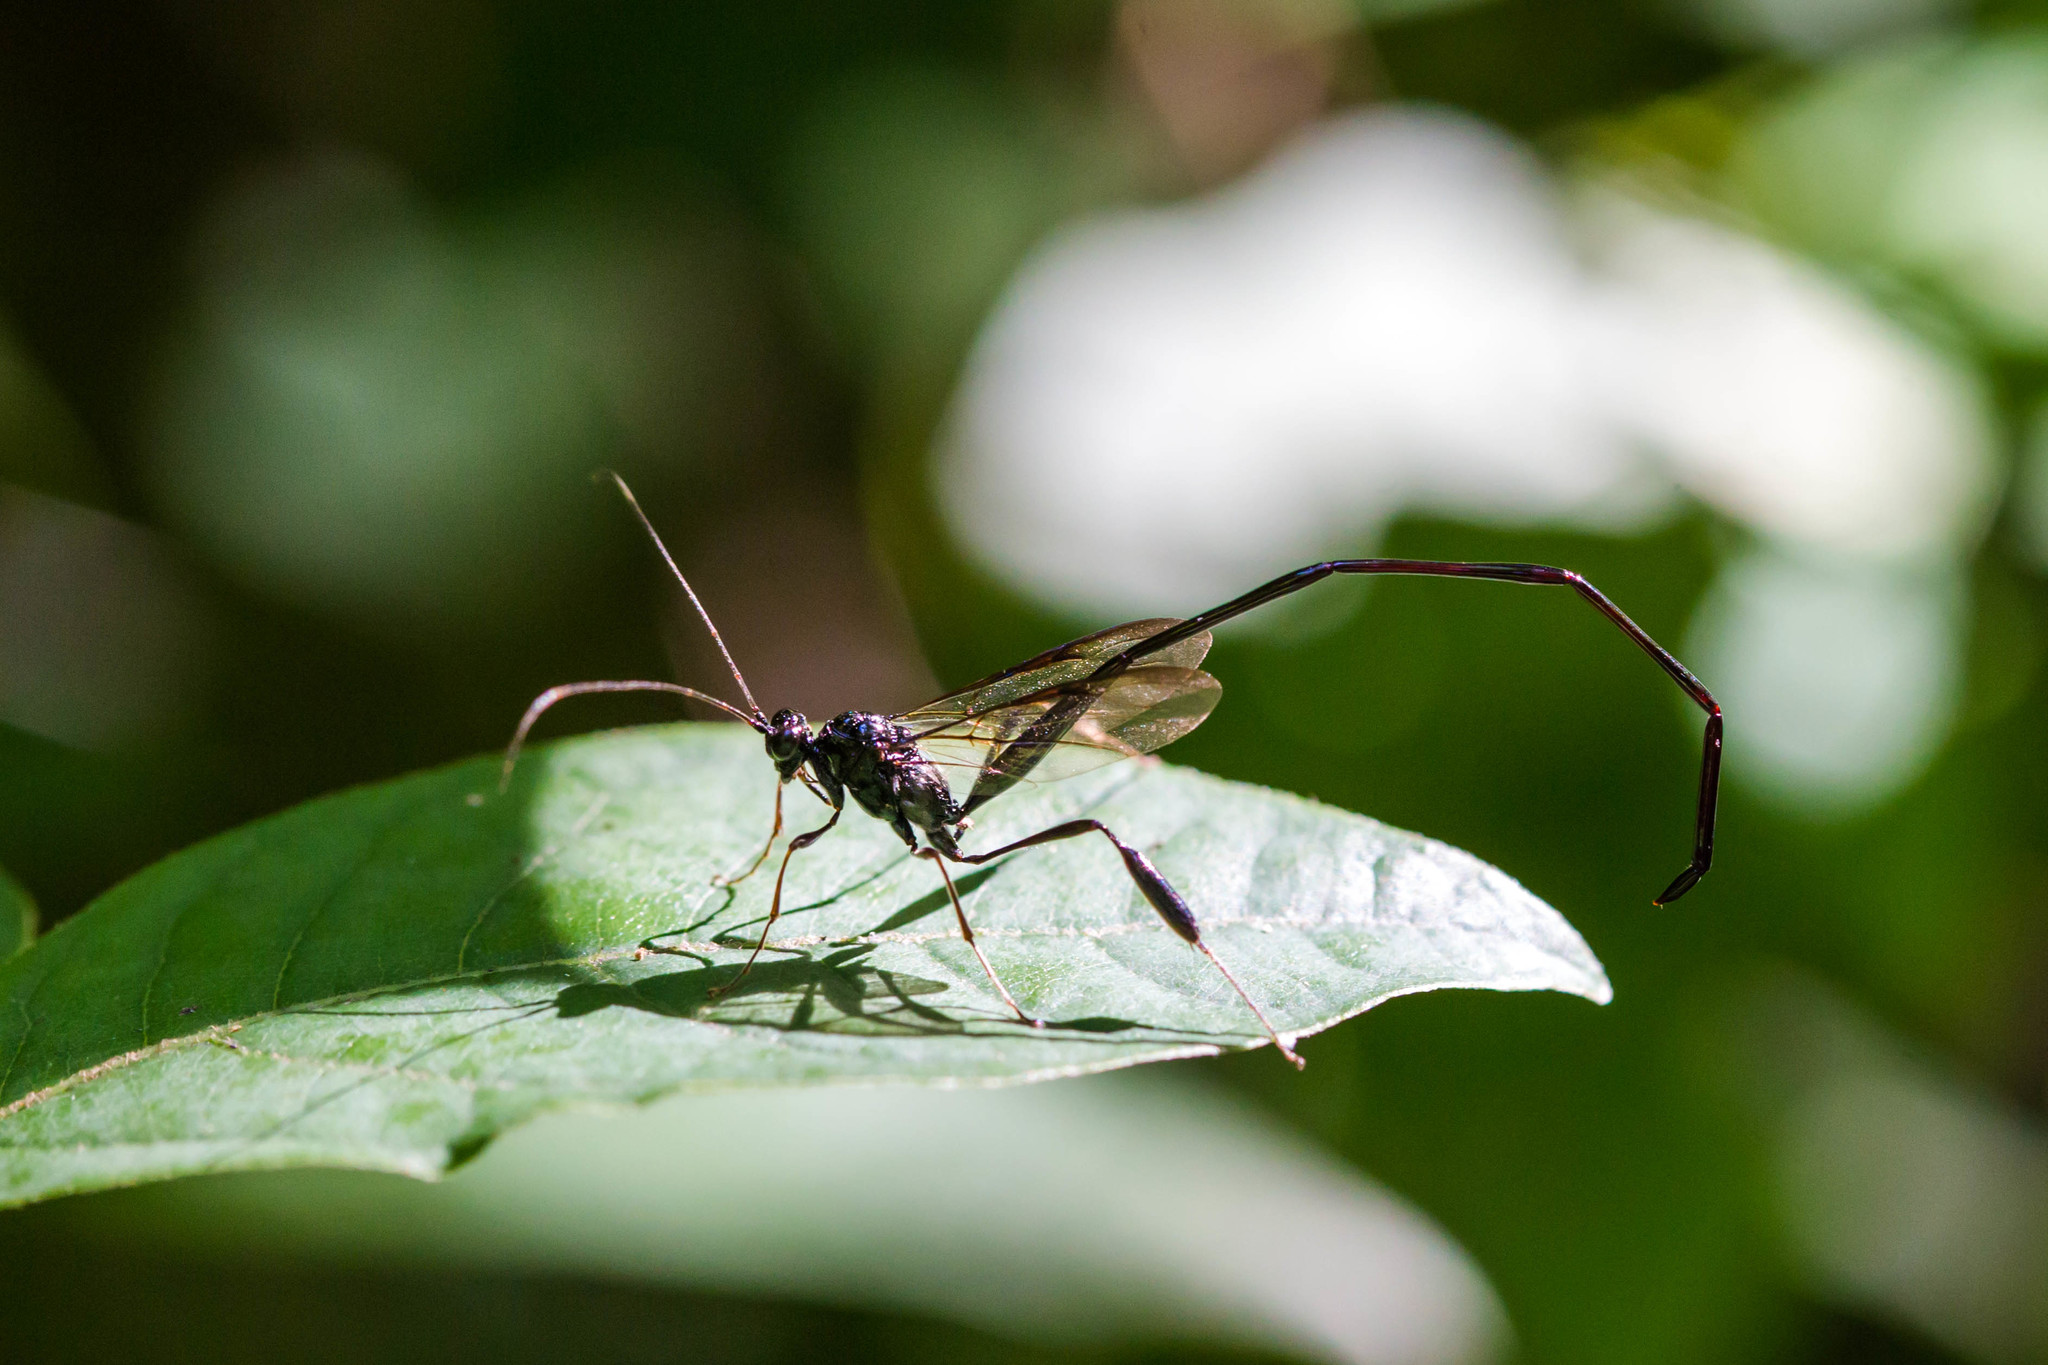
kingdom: Animalia
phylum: Arthropoda
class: Insecta
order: Hymenoptera
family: Pelecinidae
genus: Pelecinus
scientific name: Pelecinus polyturator
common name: American pelecinid wasp
